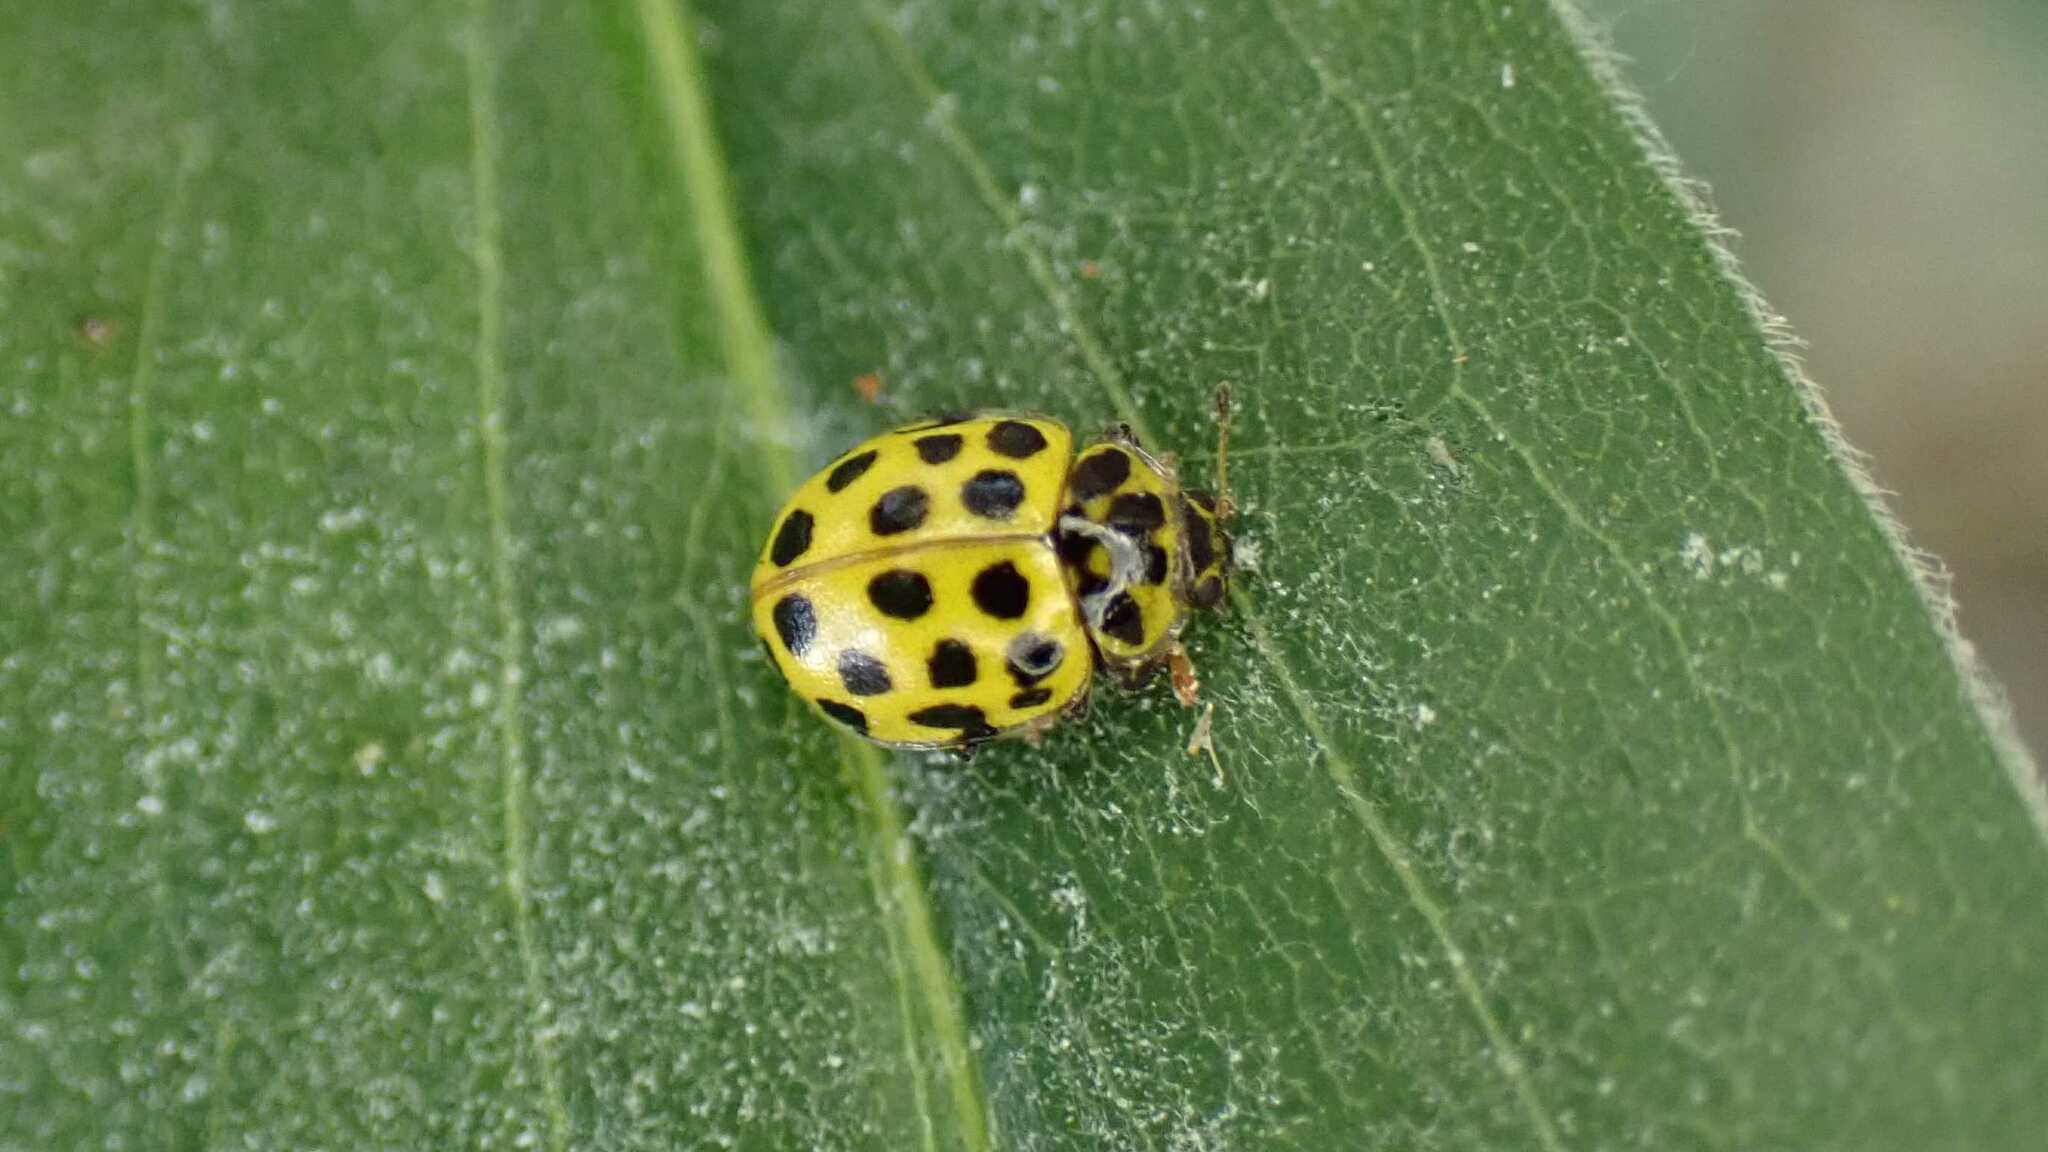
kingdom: Animalia
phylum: Arthropoda
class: Insecta
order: Coleoptera
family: Coccinellidae
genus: Psyllobora
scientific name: Psyllobora vigintiduopunctata
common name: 22-spot ladybird
